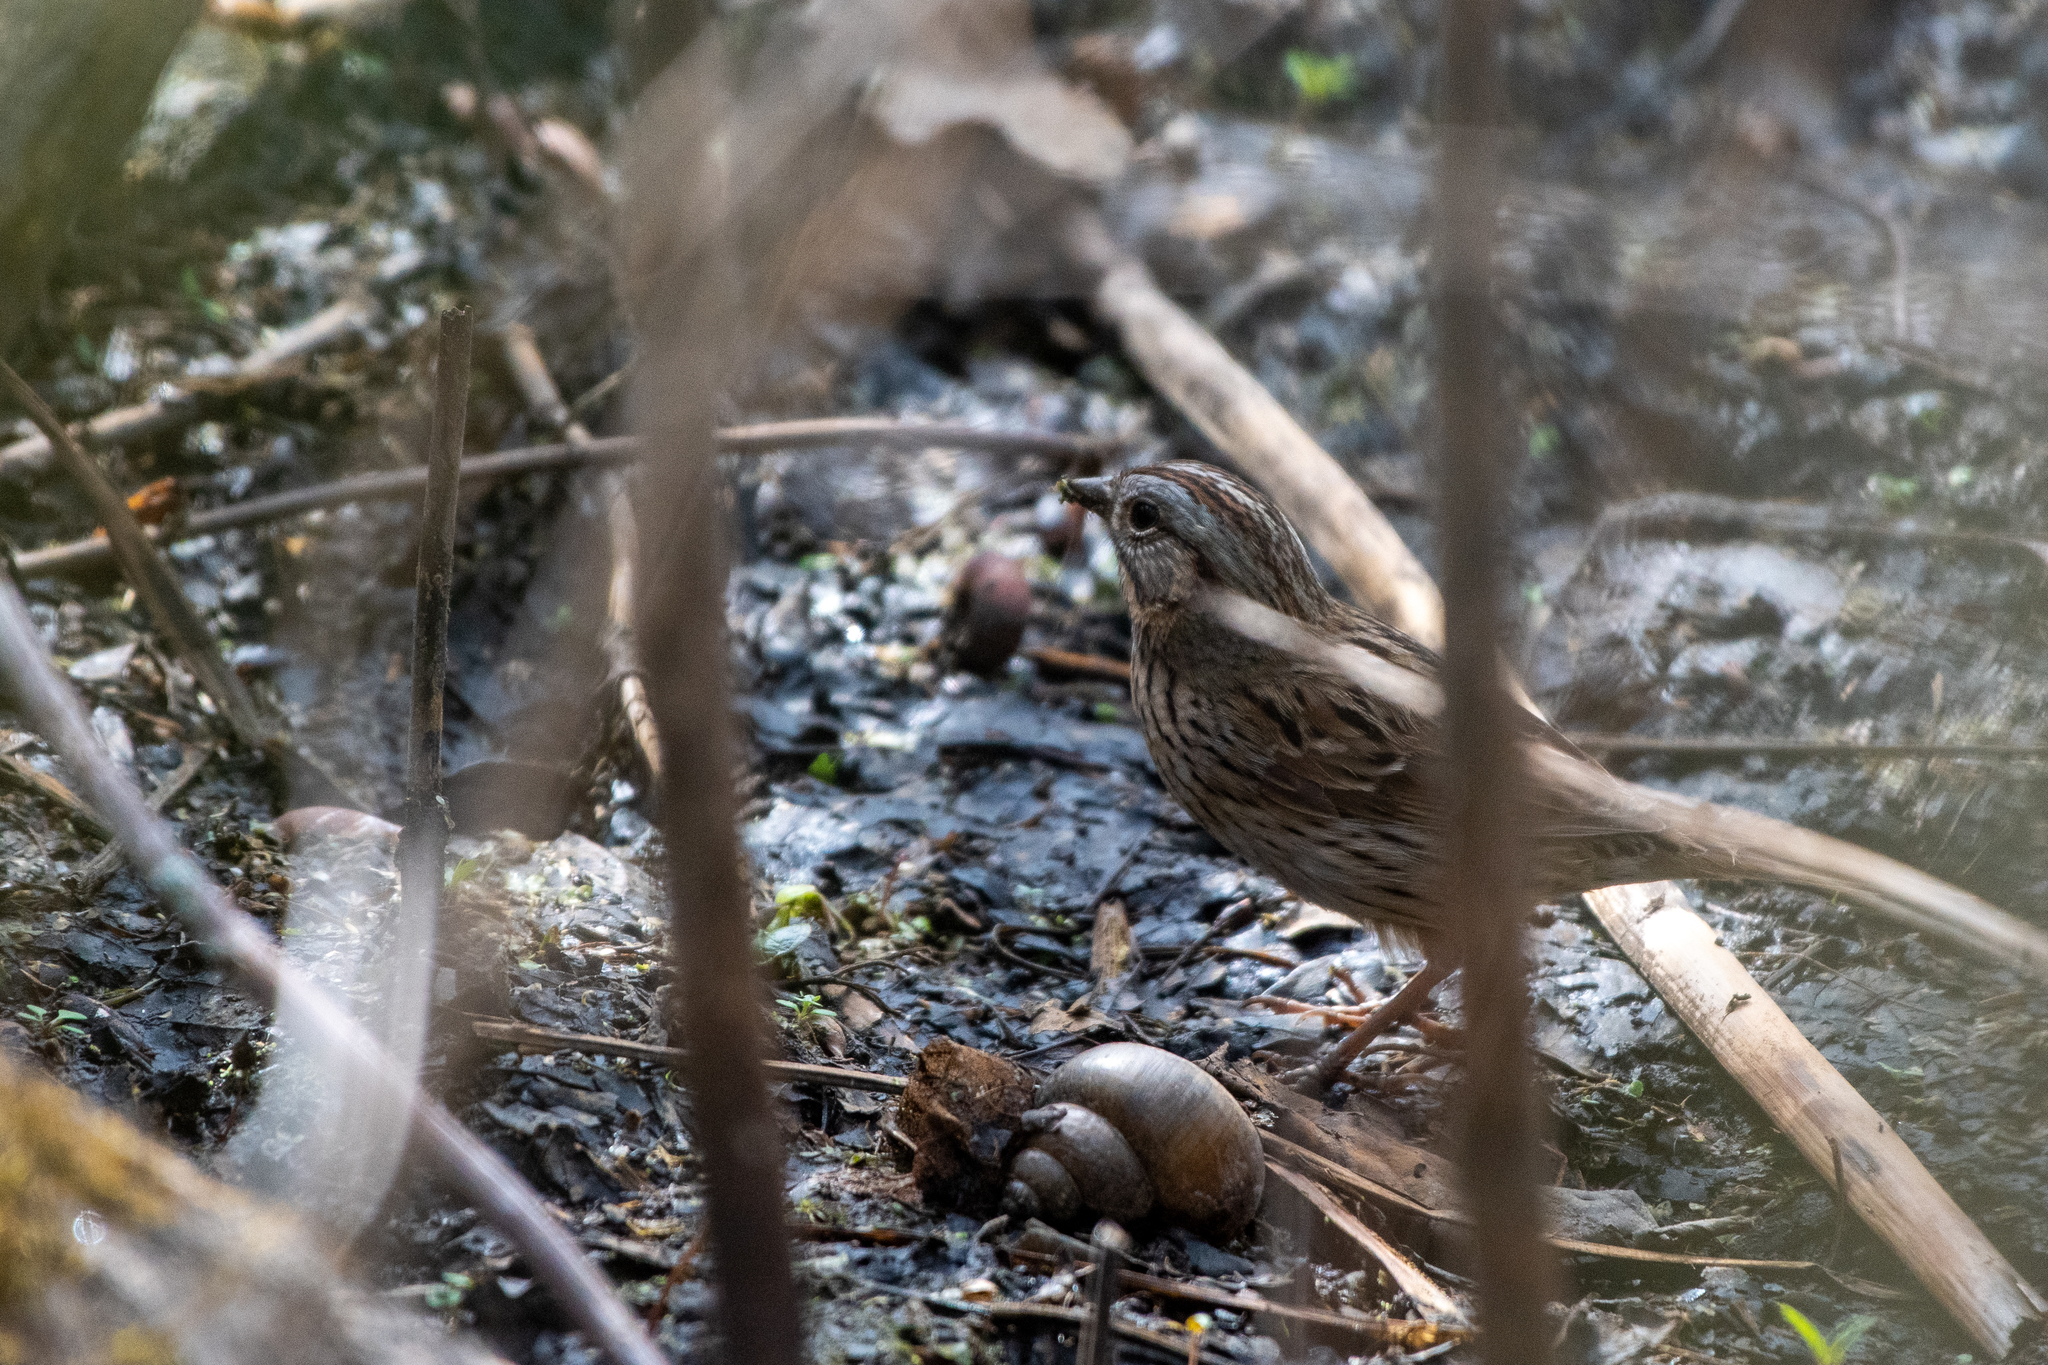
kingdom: Animalia
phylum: Chordata
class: Aves
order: Passeriformes
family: Passerellidae
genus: Melospiza
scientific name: Melospiza lincolnii
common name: Lincoln's sparrow
